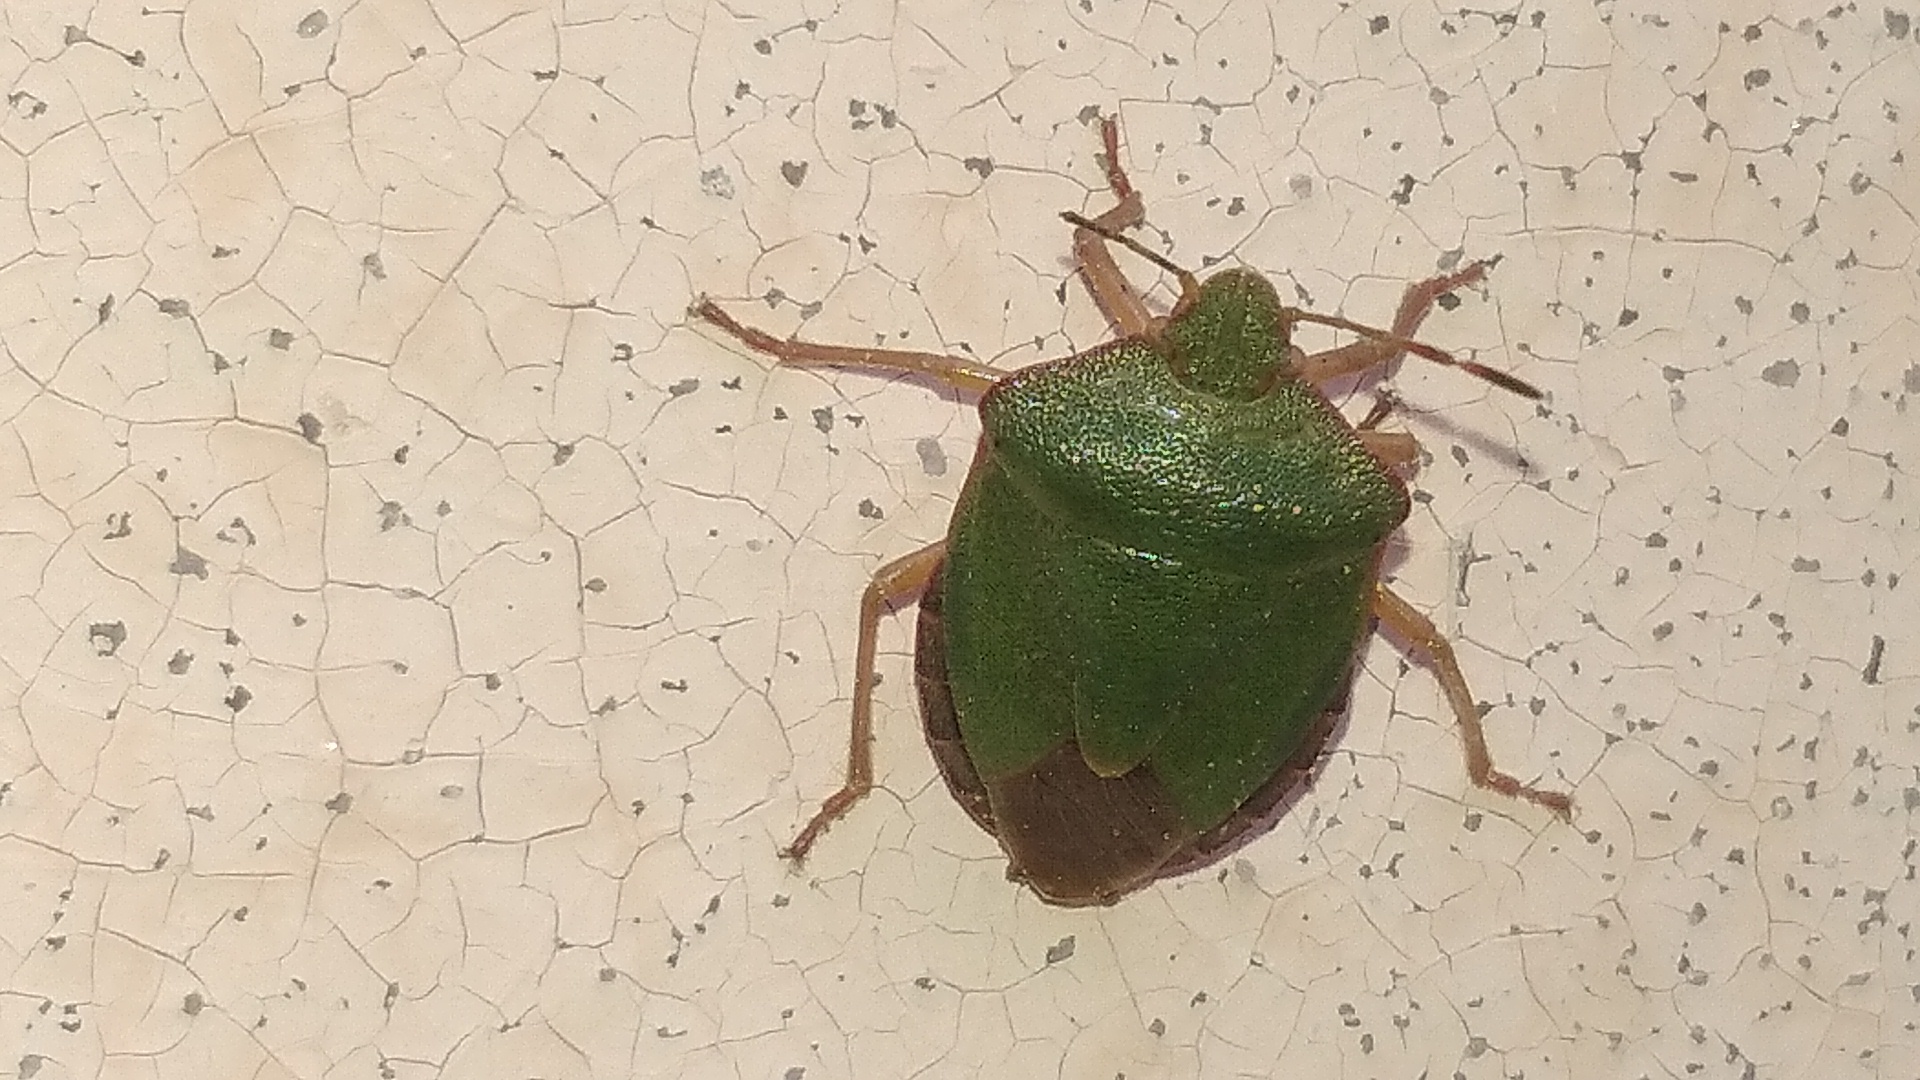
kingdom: Animalia
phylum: Arthropoda
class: Insecta
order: Hemiptera
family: Pentatomidae
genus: Palomena
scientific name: Palomena prasina
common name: Green shieldbug
